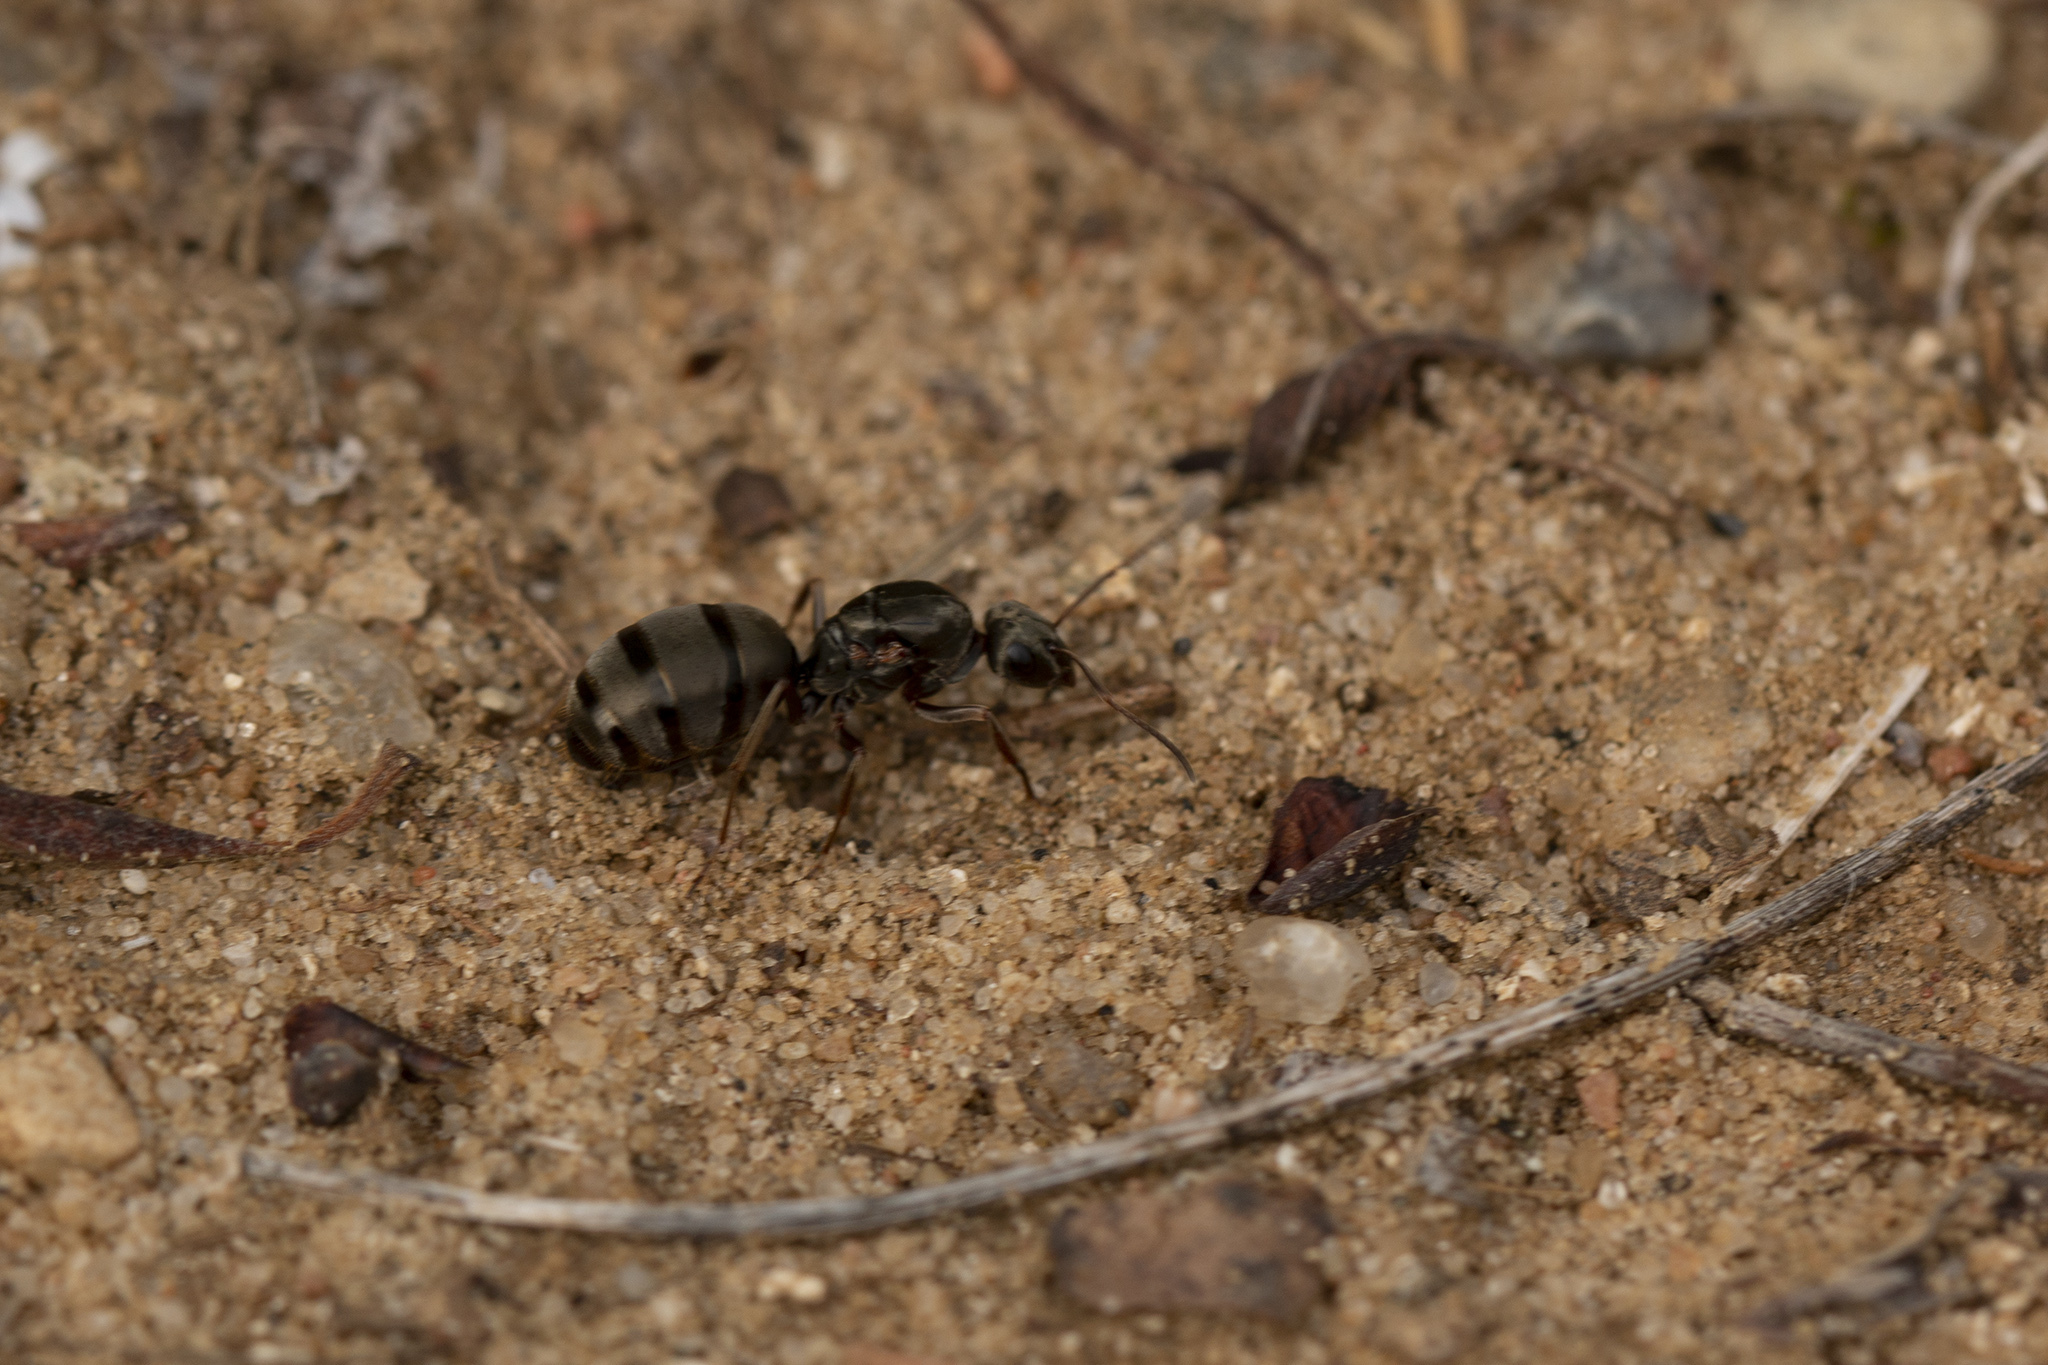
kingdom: Animalia
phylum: Arthropoda
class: Insecta
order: Hymenoptera
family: Formicidae
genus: Formica
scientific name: Formica cinerea
